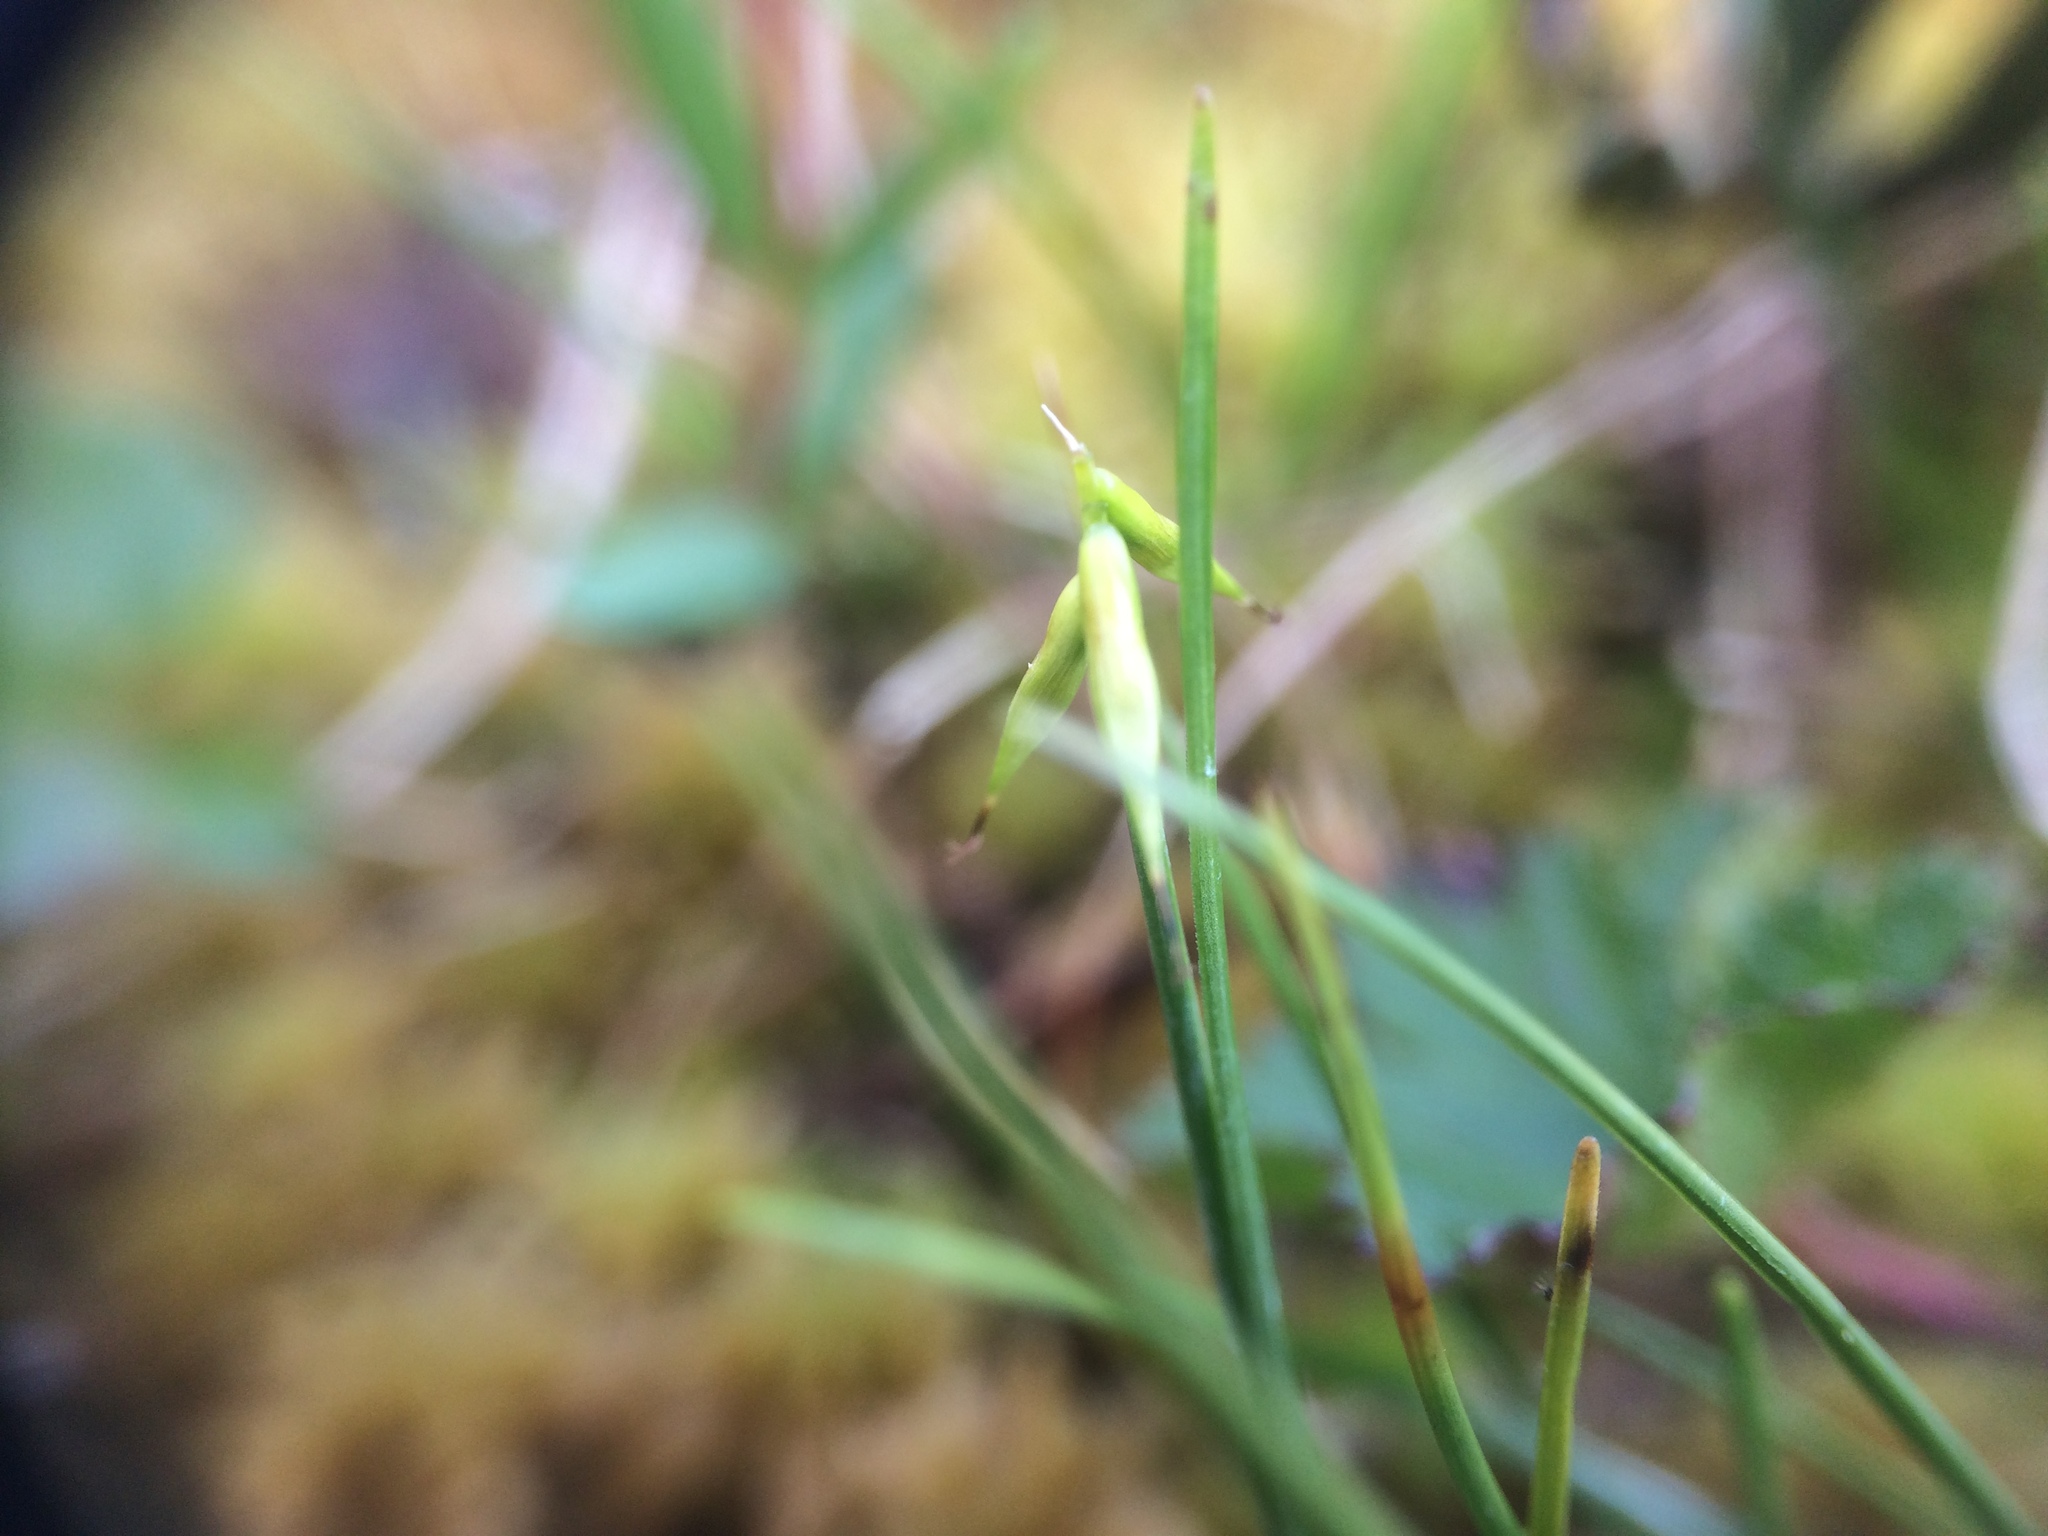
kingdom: Plantae
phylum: Tracheophyta
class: Liliopsida
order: Poales
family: Cyperaceae
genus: Carex
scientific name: Carex pauciflora
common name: Few-flowered sedge
